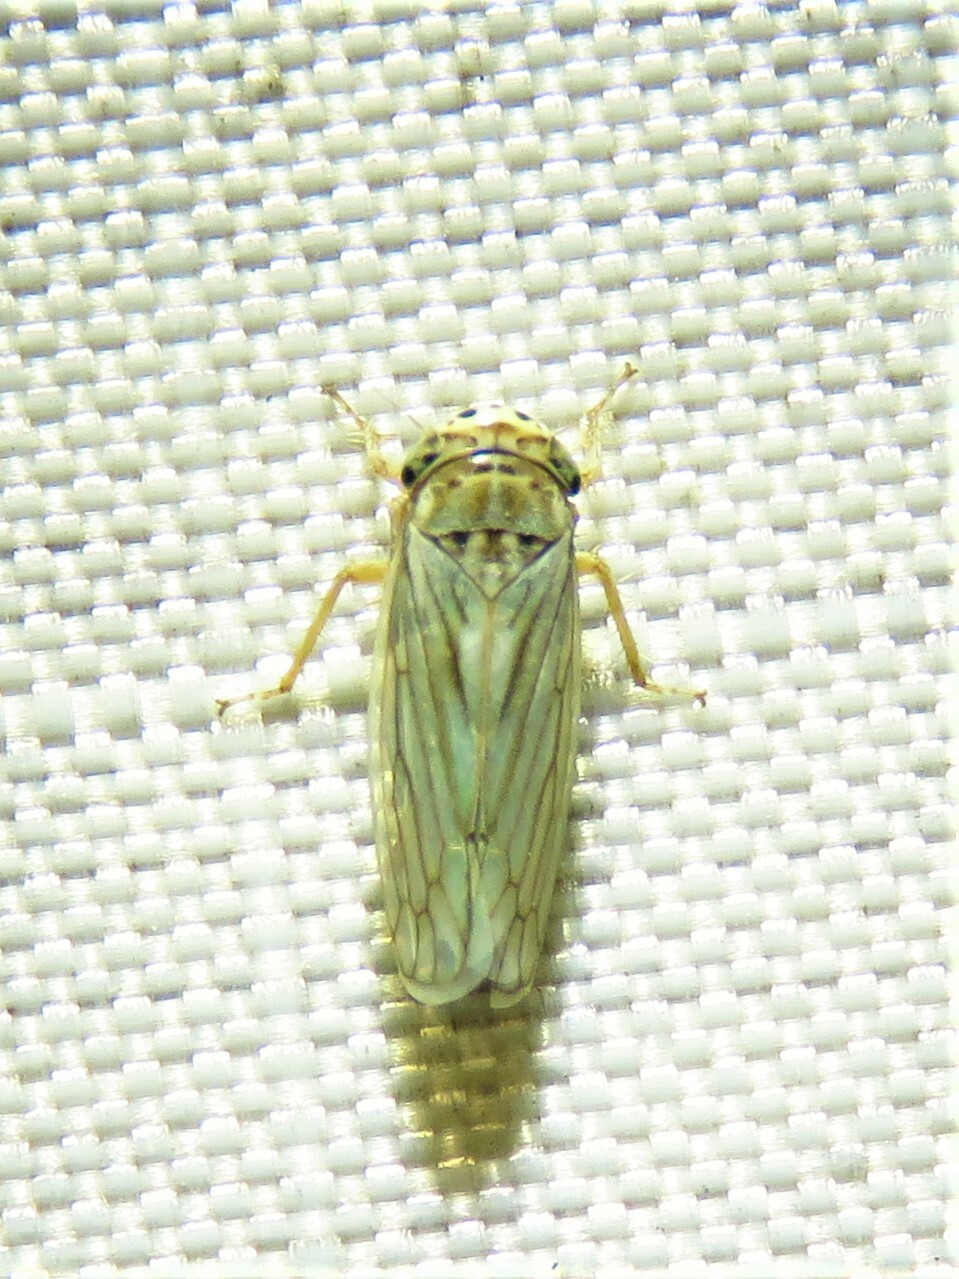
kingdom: Animalia
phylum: Arthropoda
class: Insecta
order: Hemiptera
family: Cicadellidae
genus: Exitianus
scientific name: Exitianus exitiosus
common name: Gray lawn leafhopper
